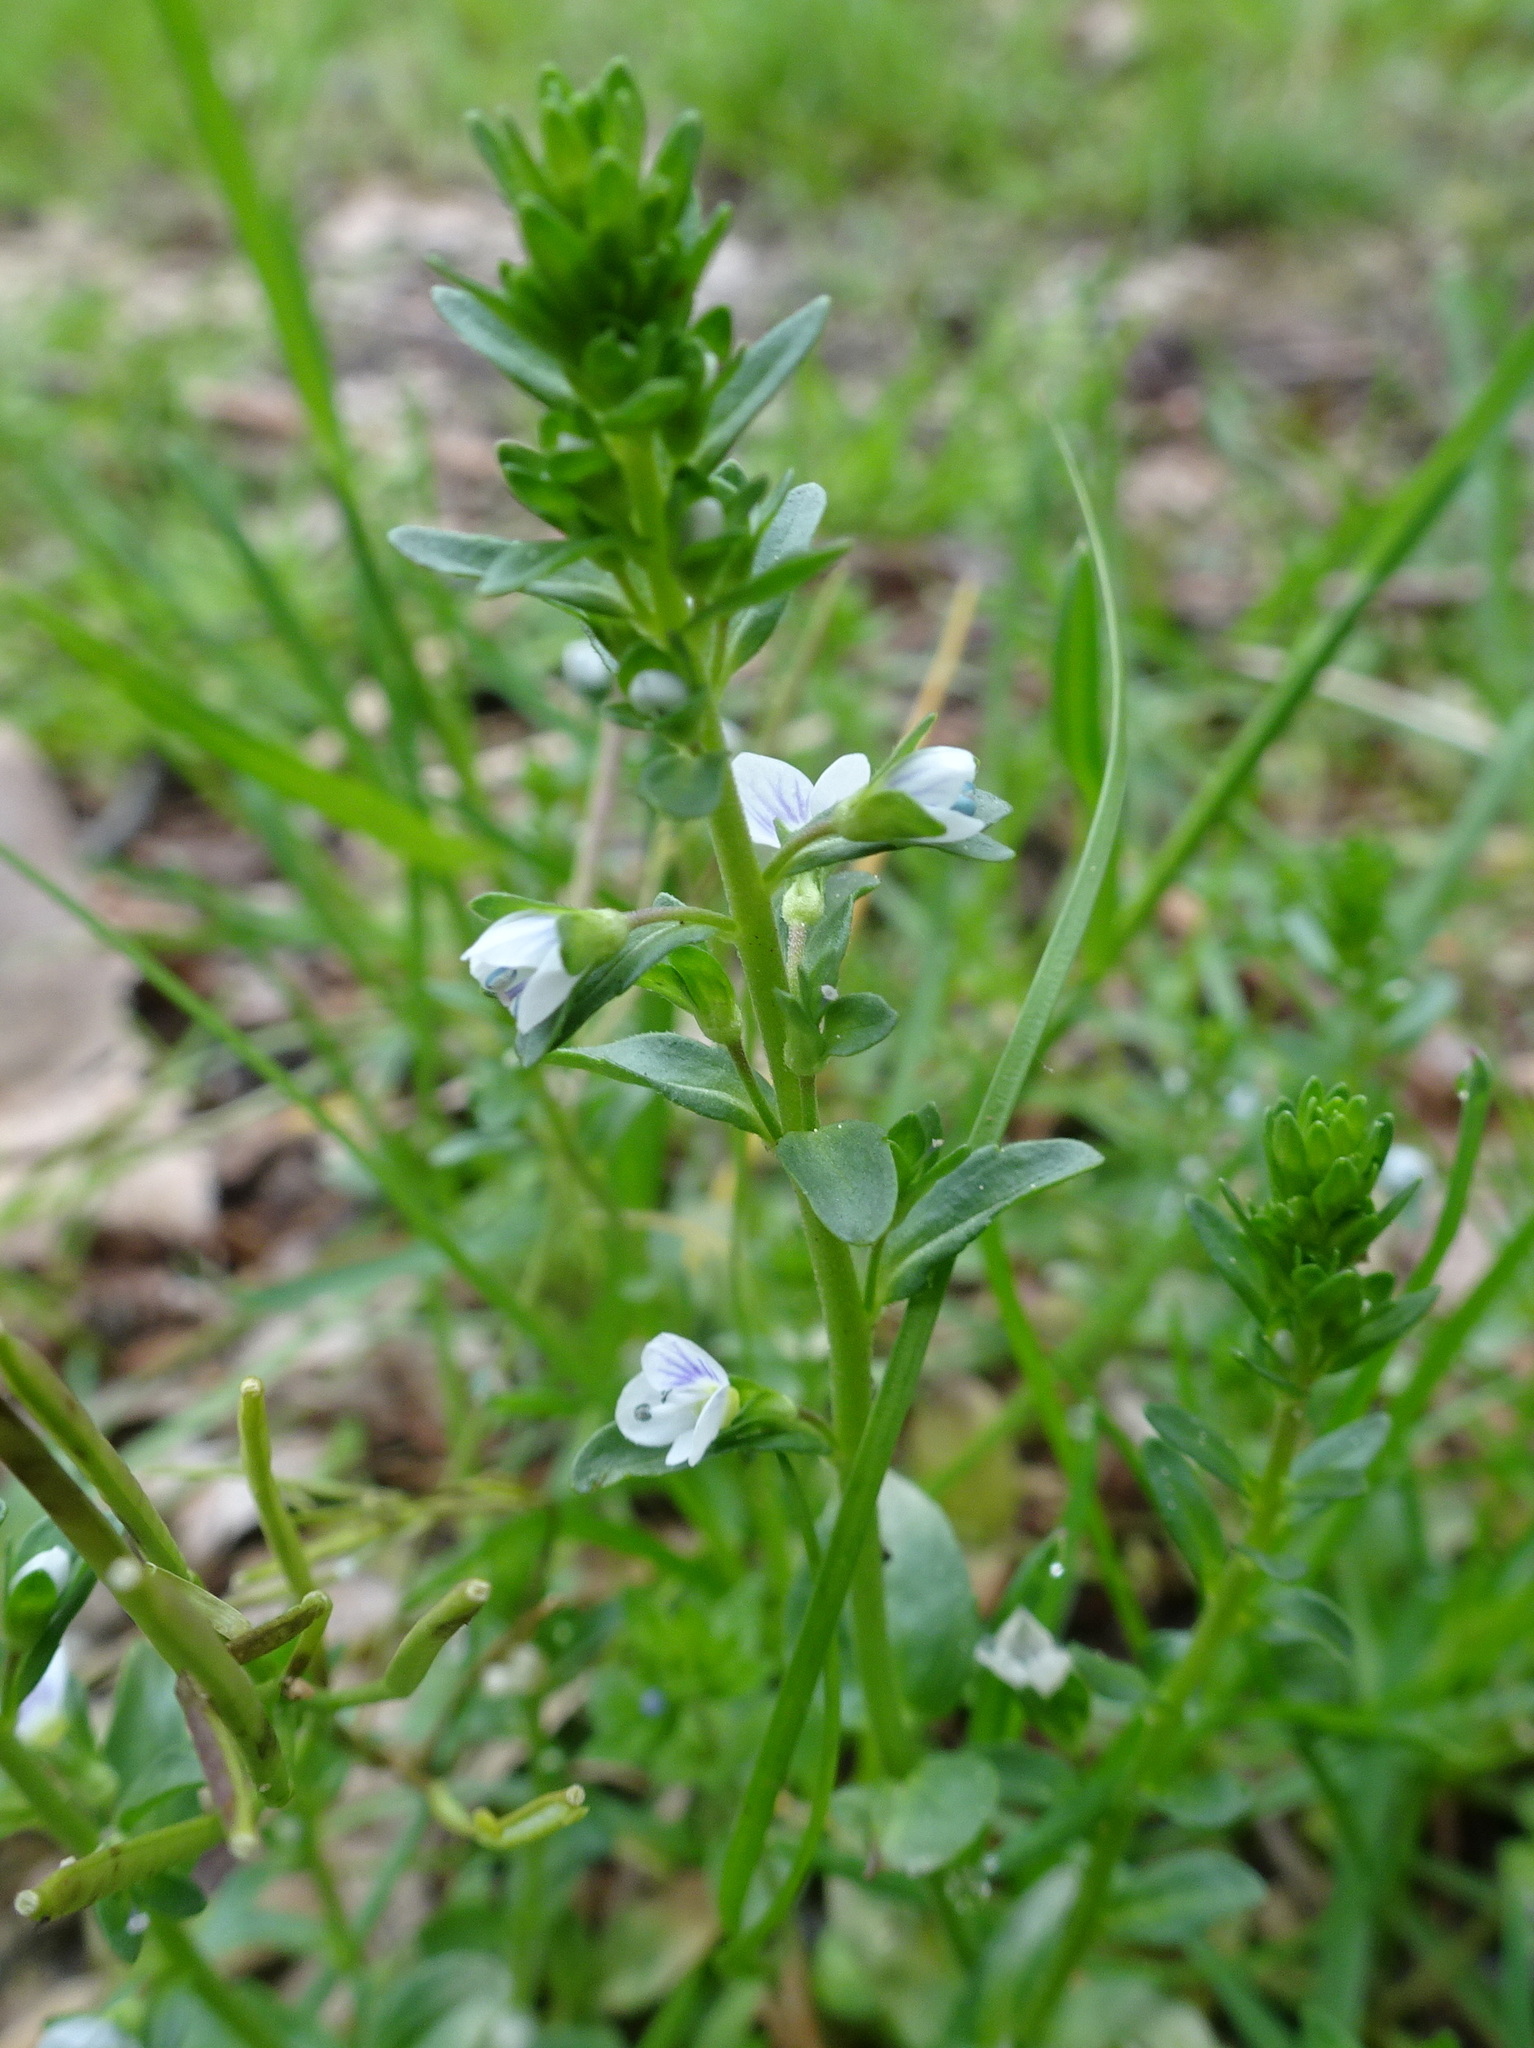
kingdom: Plantae
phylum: Tracheophyta
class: Magnoliopsida
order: Lamiales
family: Plantaginaceae
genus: Veronica
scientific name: Veronica serpyllifolia
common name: Thyme-leaved speedwell
